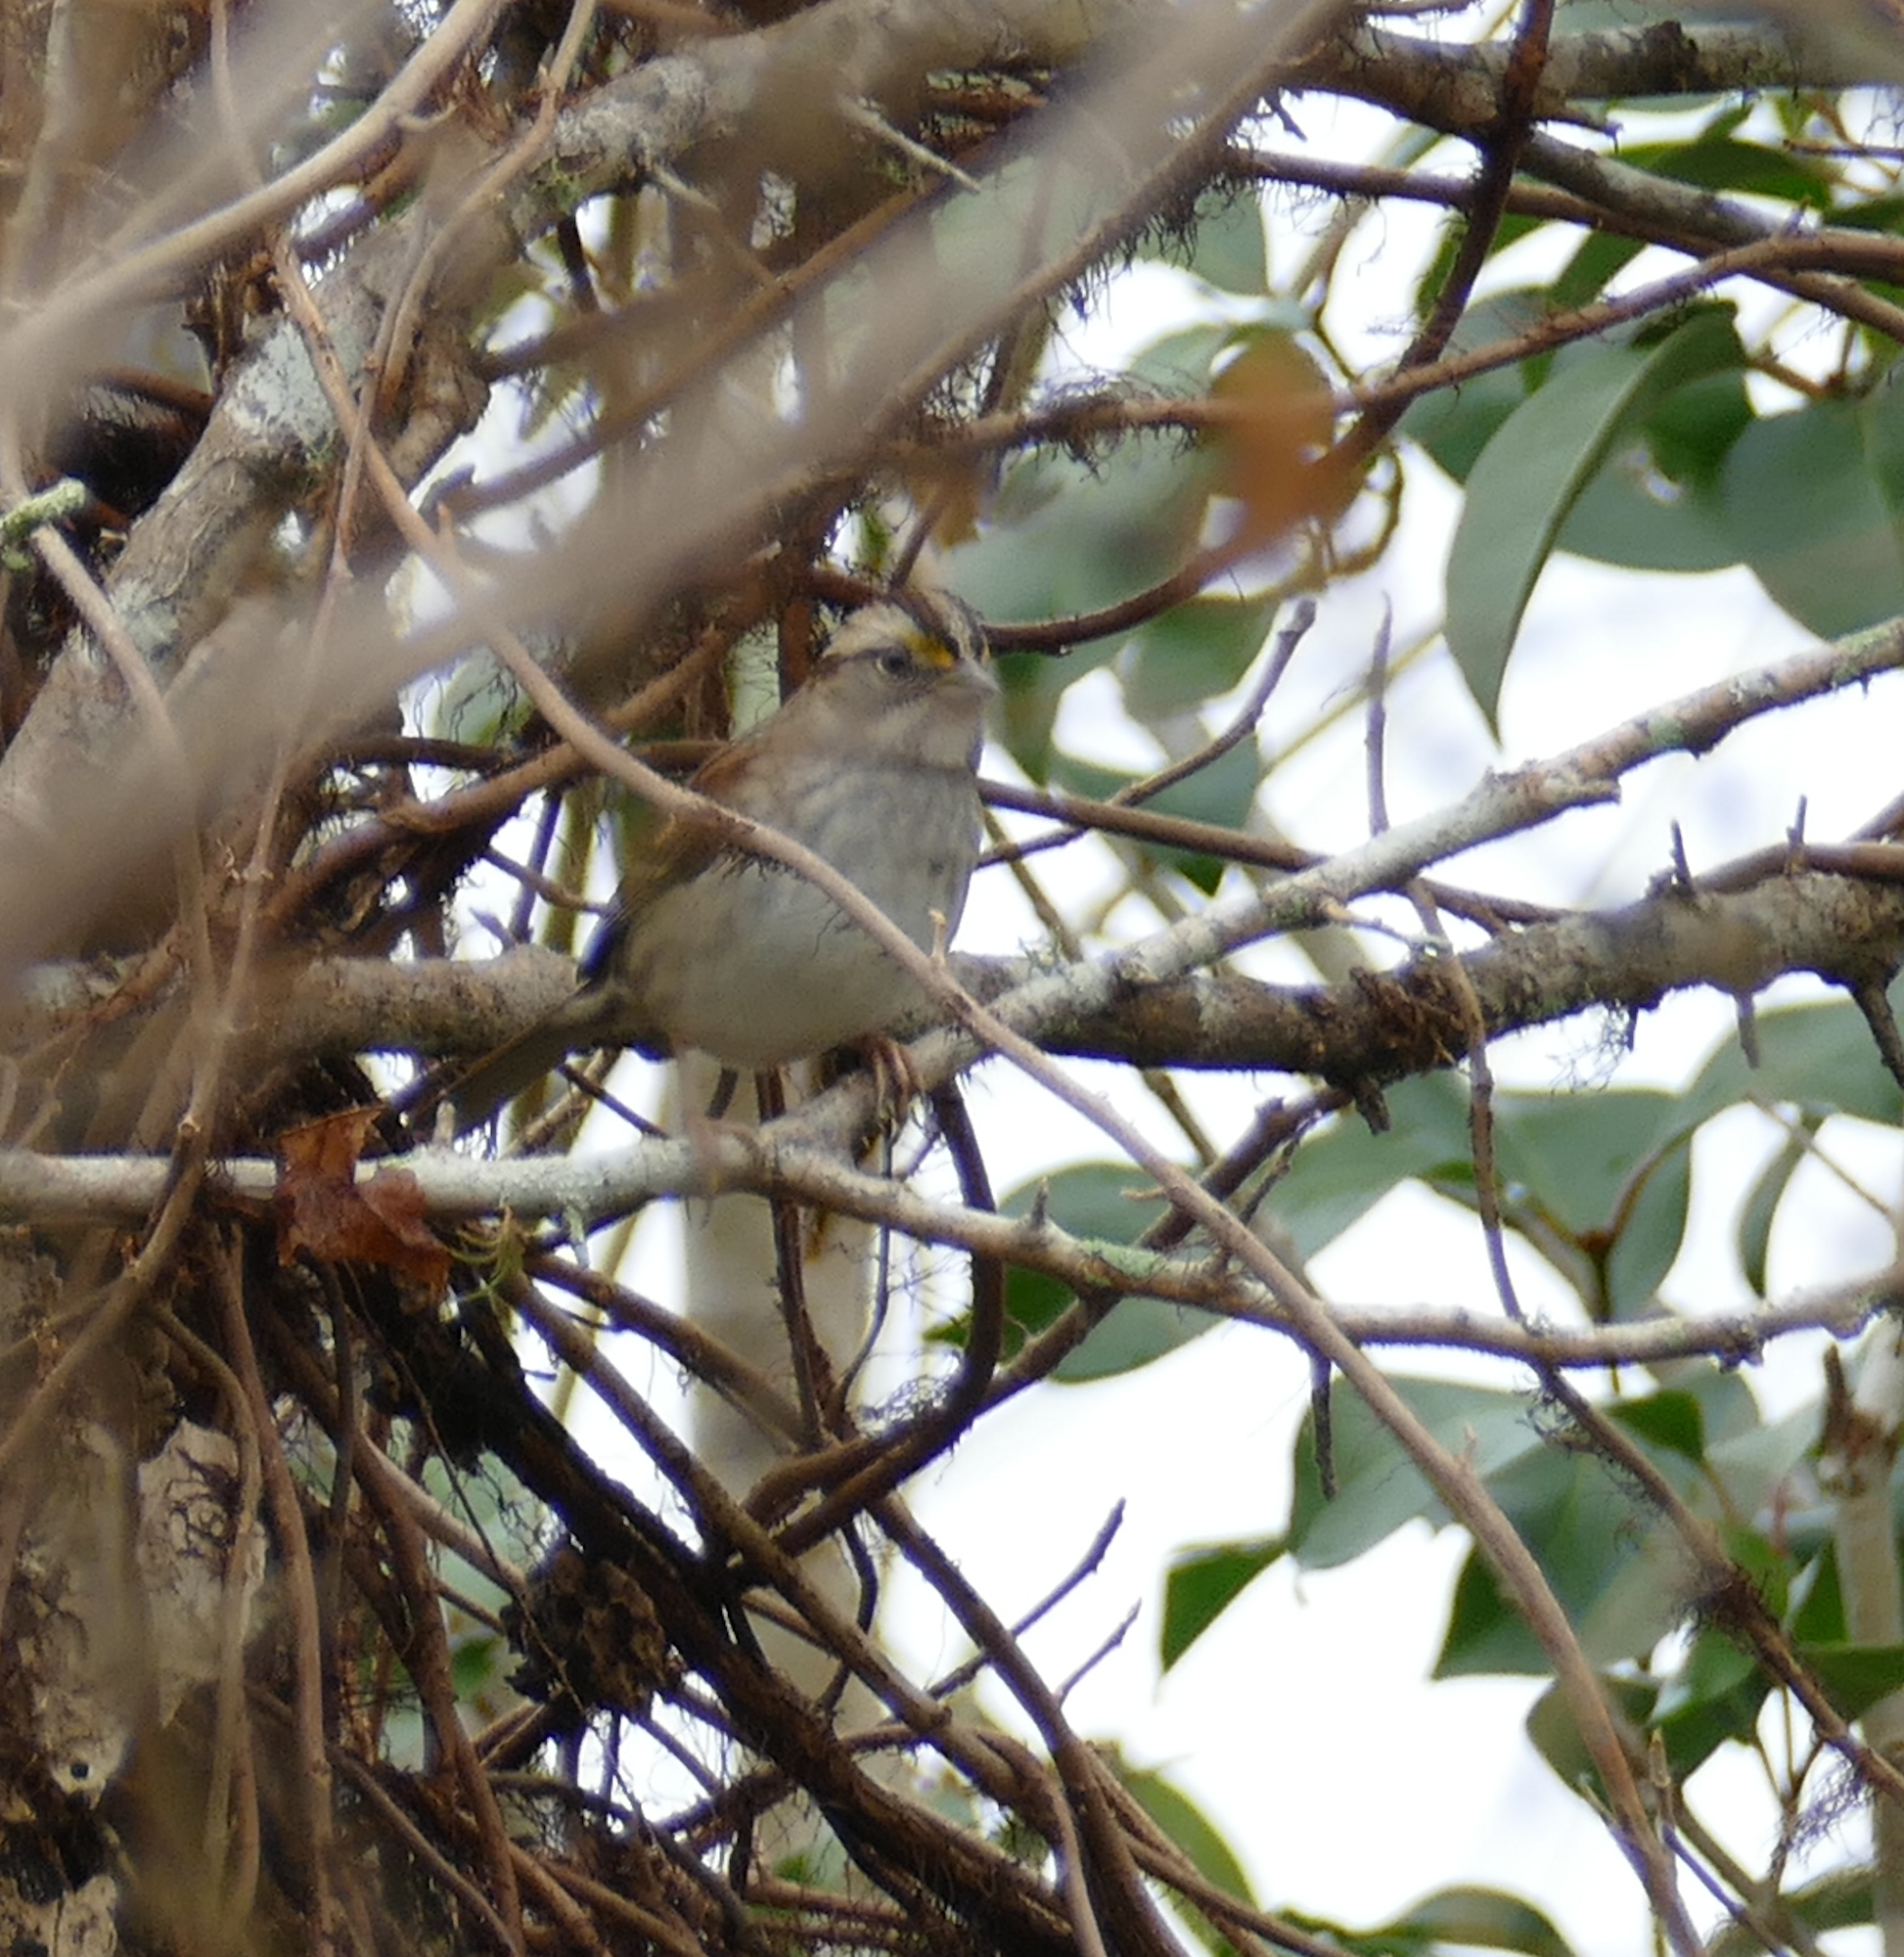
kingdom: Animalia
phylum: Chordata
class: Aves
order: Passeriformes
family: Passerellidae
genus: Zonotrichia
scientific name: Zonotrichia albicollis
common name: White-throated sparrow
